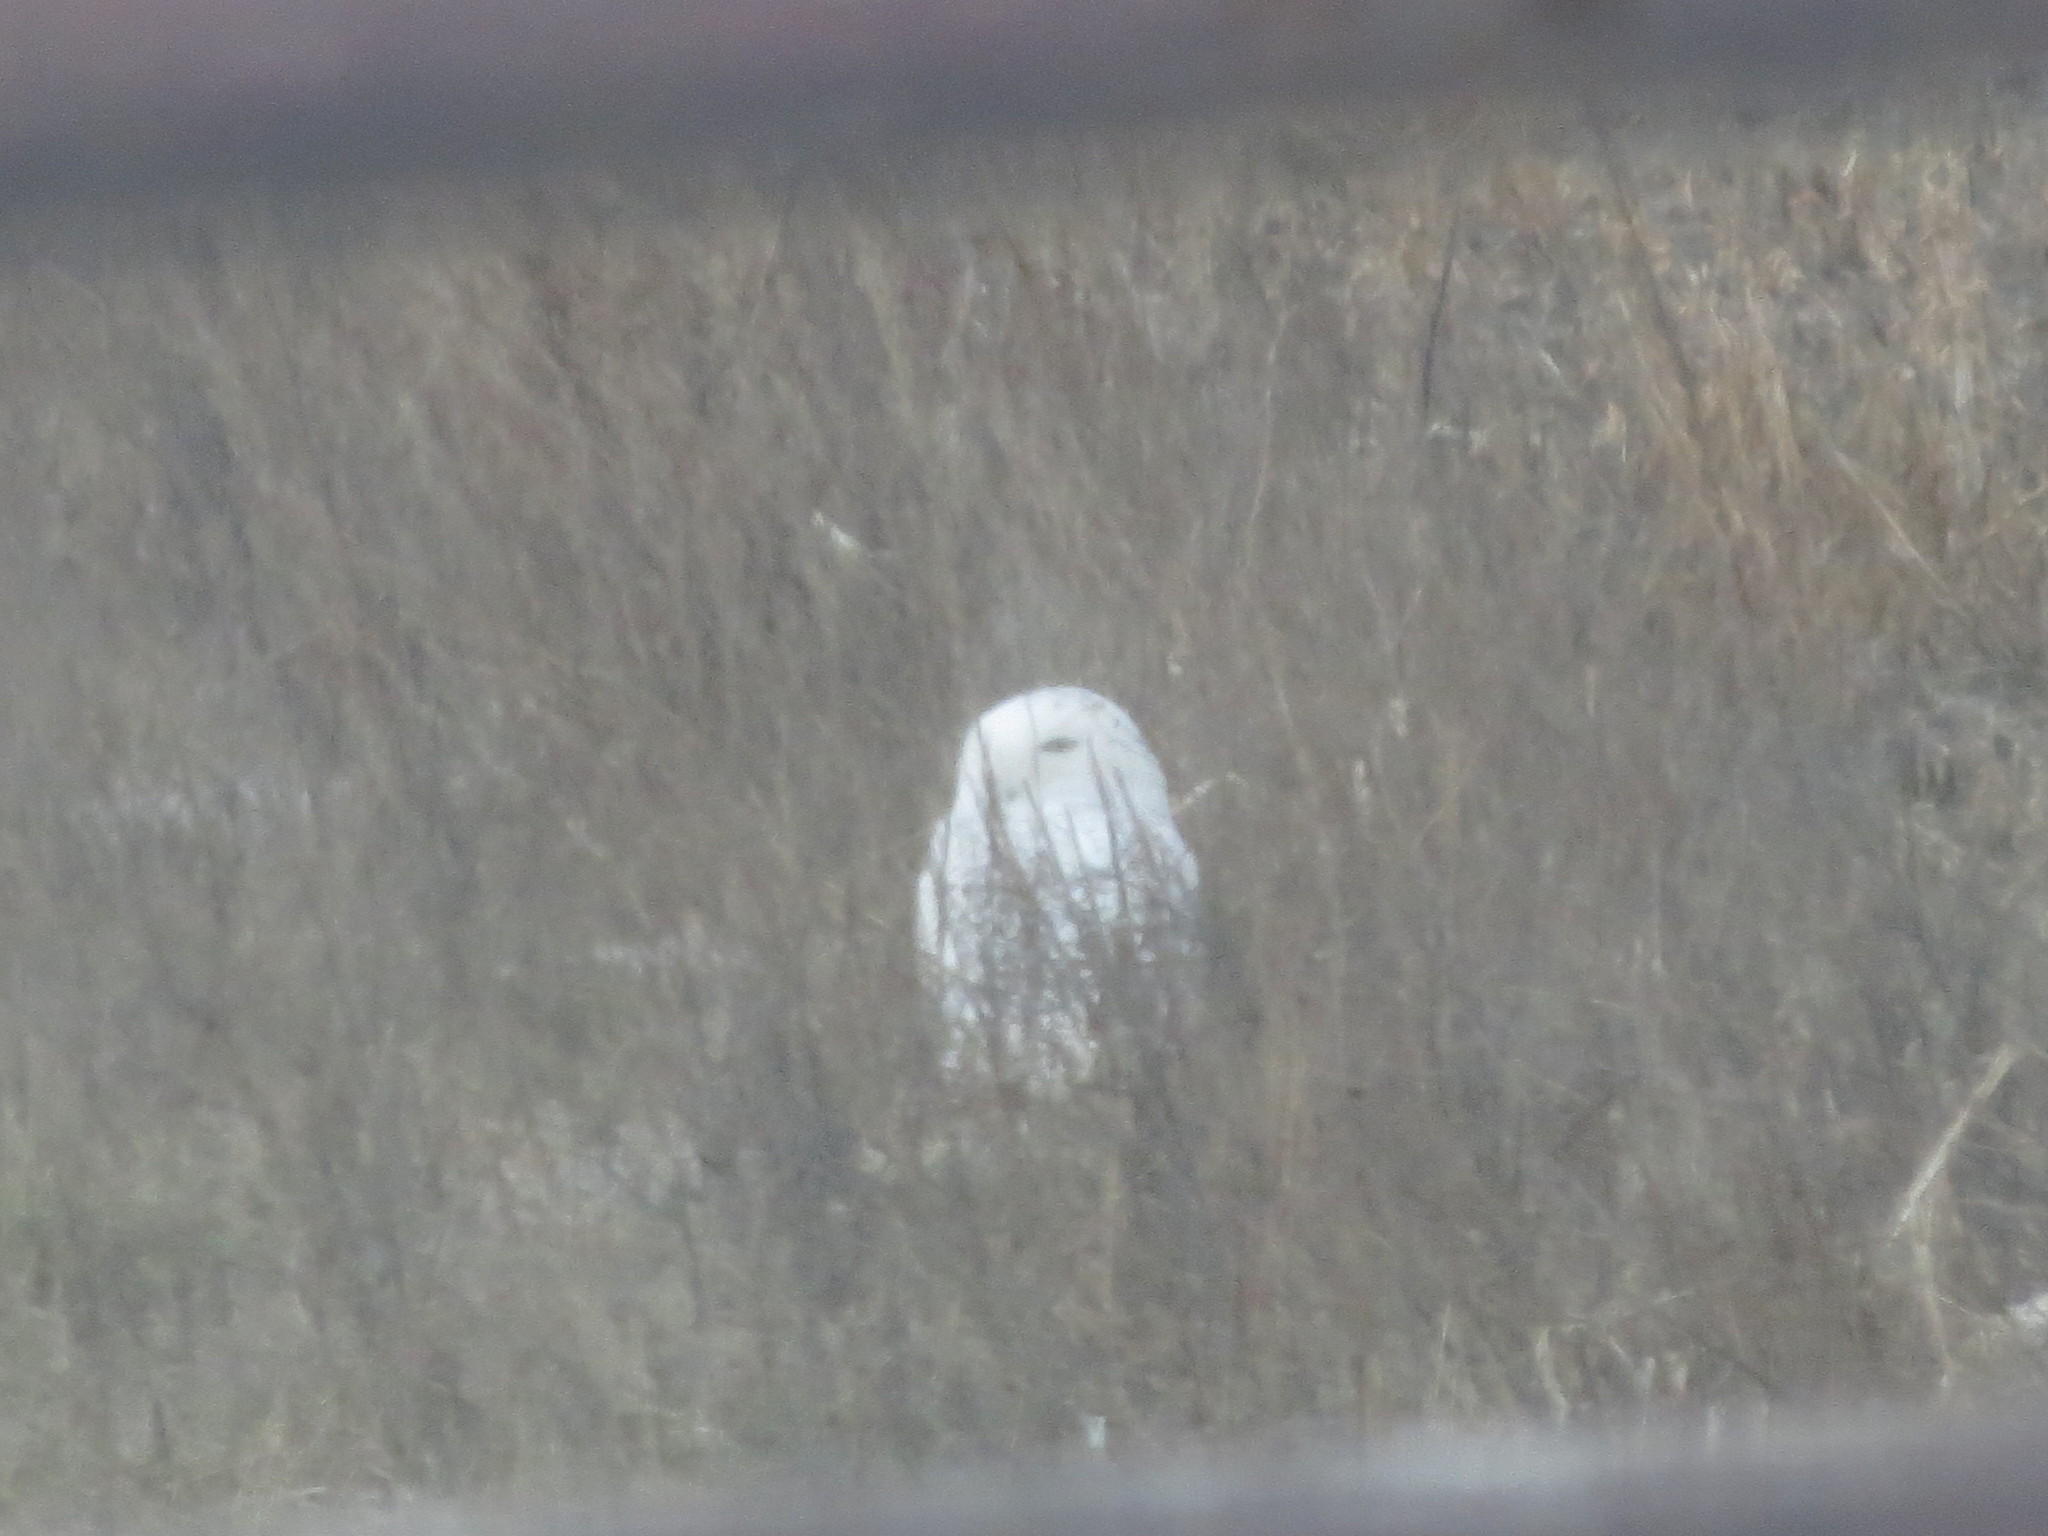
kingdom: Animalia
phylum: Chordata
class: Aves
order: Strigiformes
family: Strigidae
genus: Bubo
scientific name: Bubo scandiacus
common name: Snowy owl
